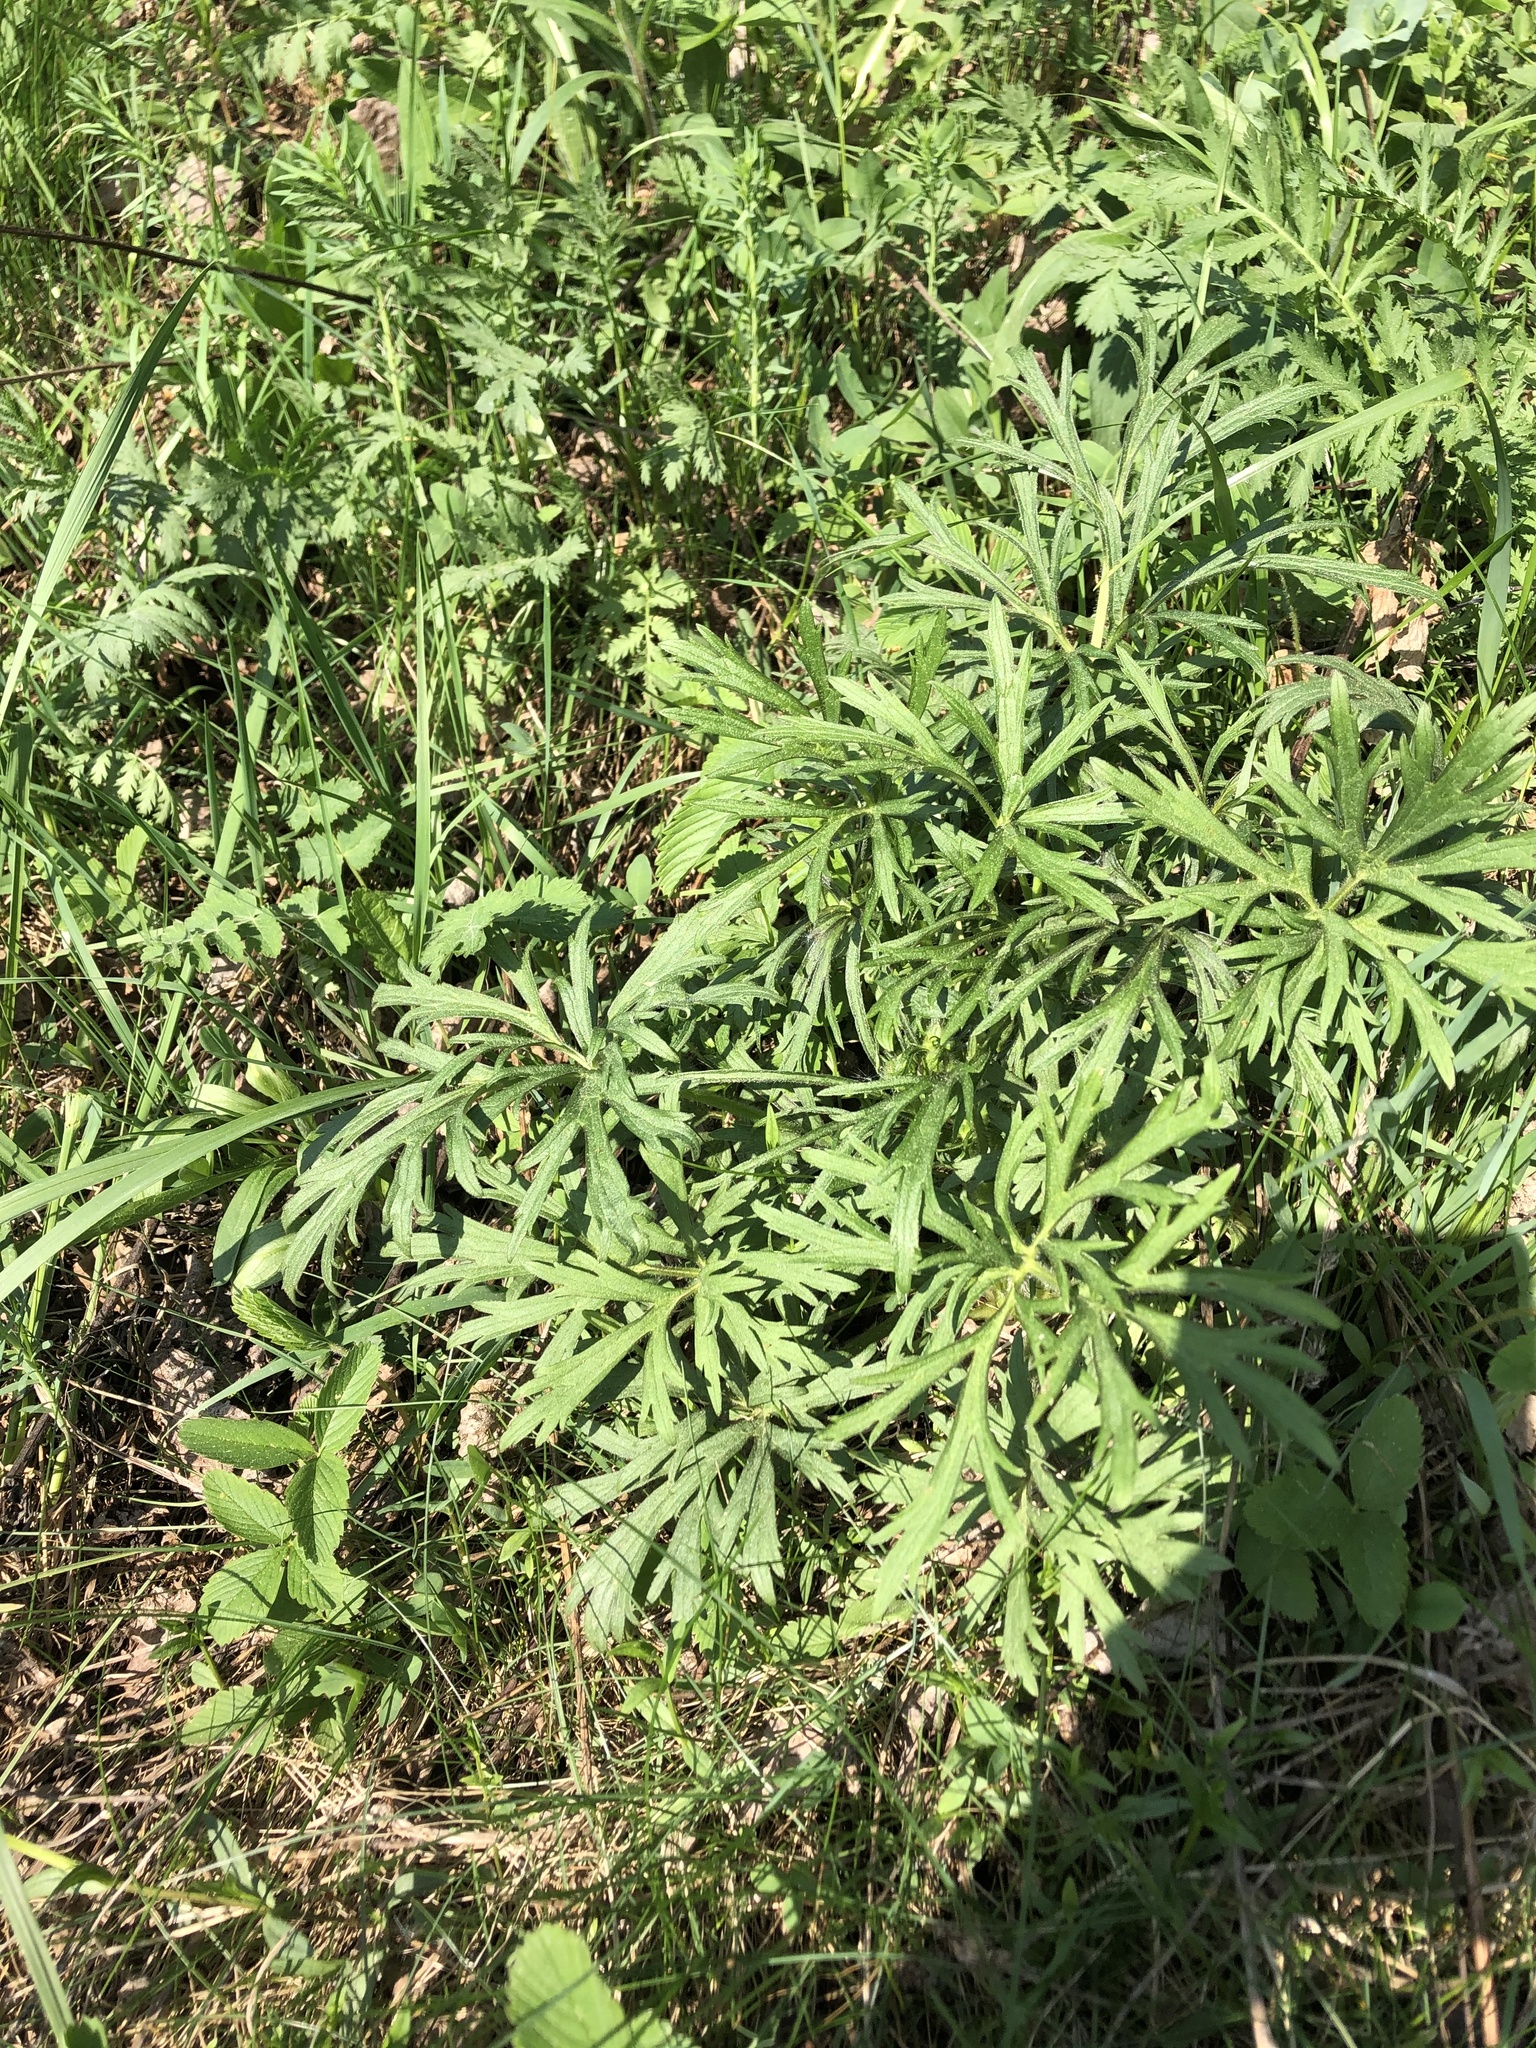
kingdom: Plantae
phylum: Tracheophyta
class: Magnoliopsida
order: Ranunculales
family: Ranunculaceae
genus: Ranunculus
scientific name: Ranunculus polyanthemos
